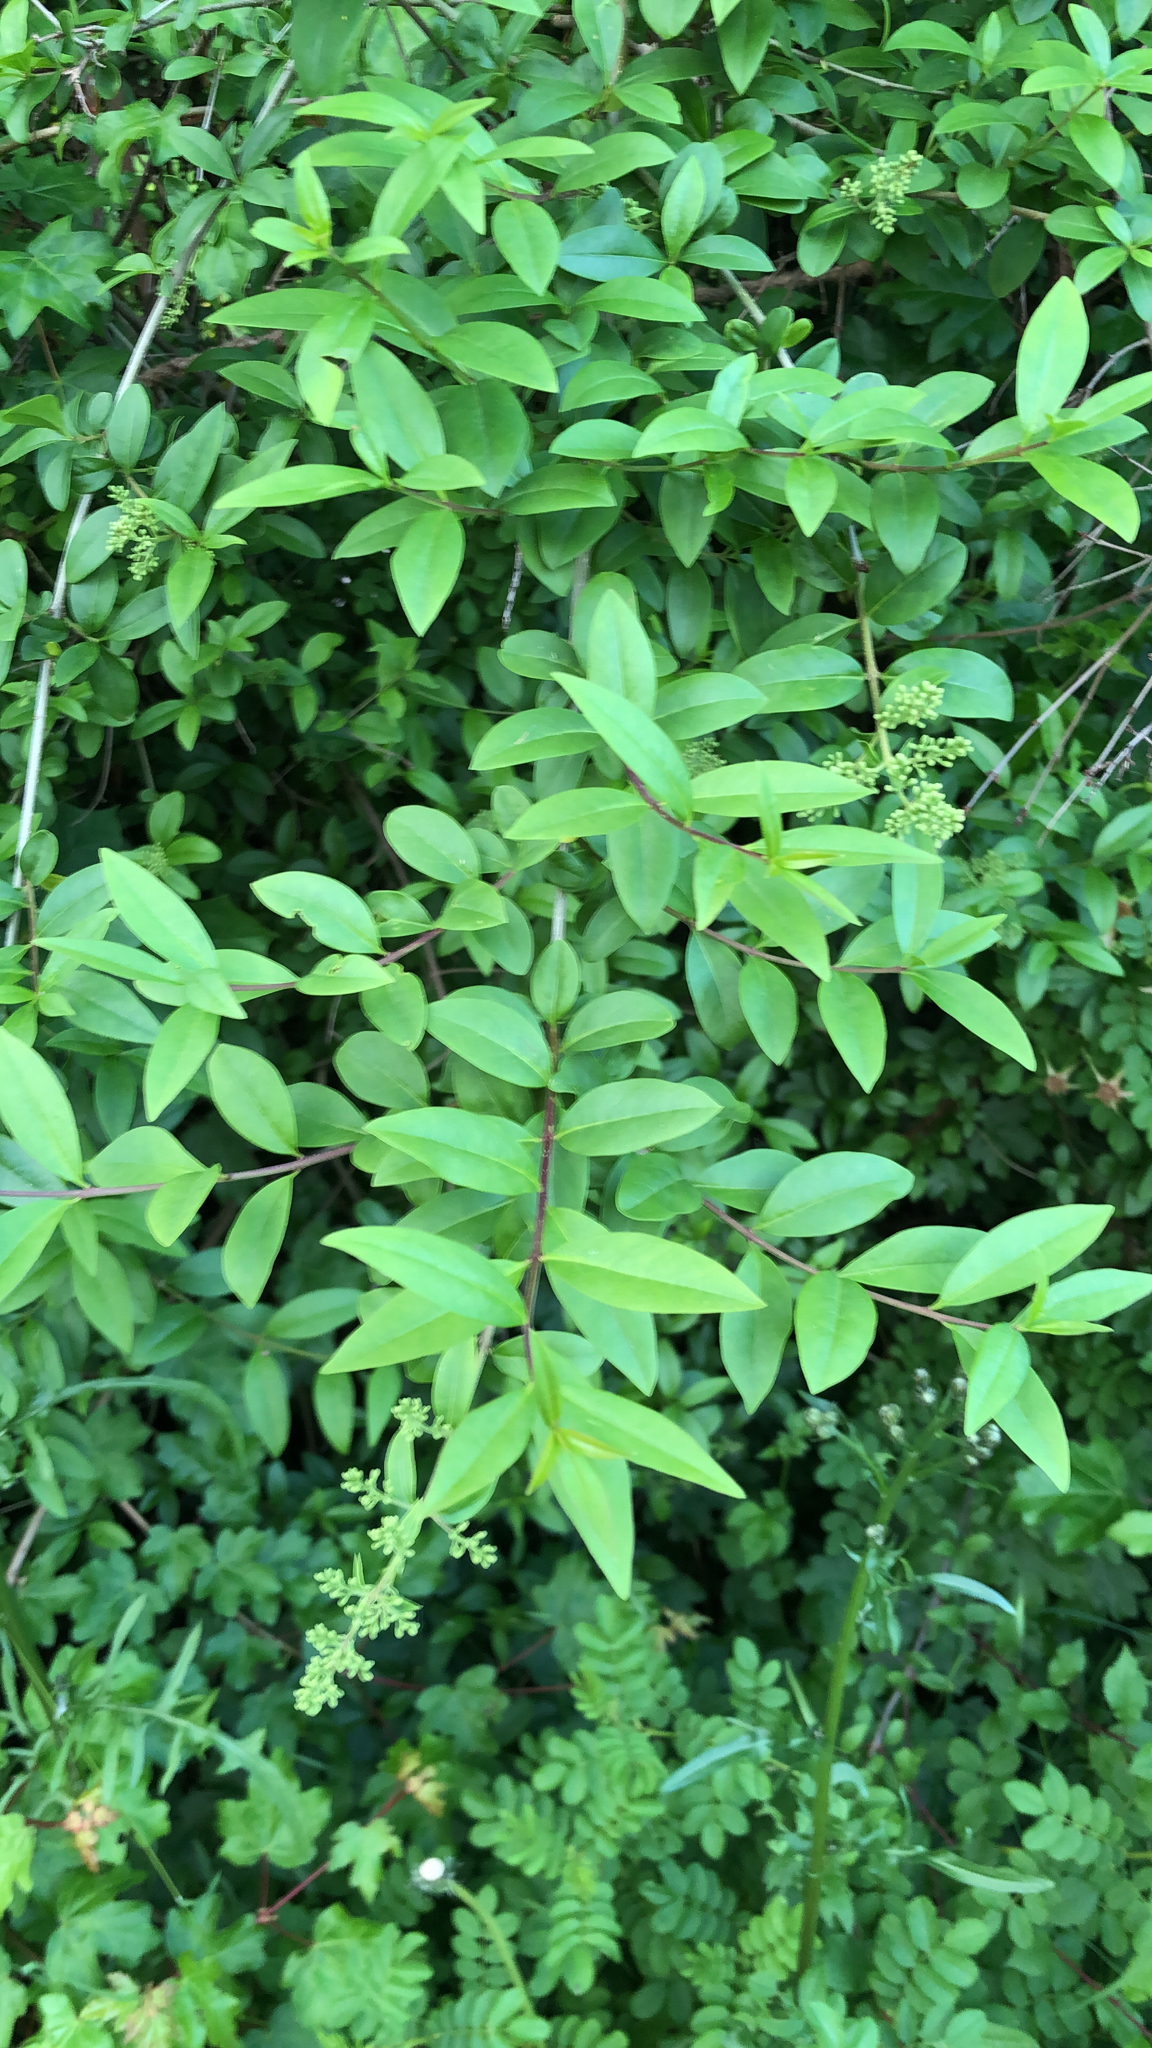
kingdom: Plantae
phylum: Tracheophyta
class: Magnoliopsida
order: Lamiales
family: Oleaceae
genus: Ligustrum
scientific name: Ligustrum vulgare
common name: Wild privet
